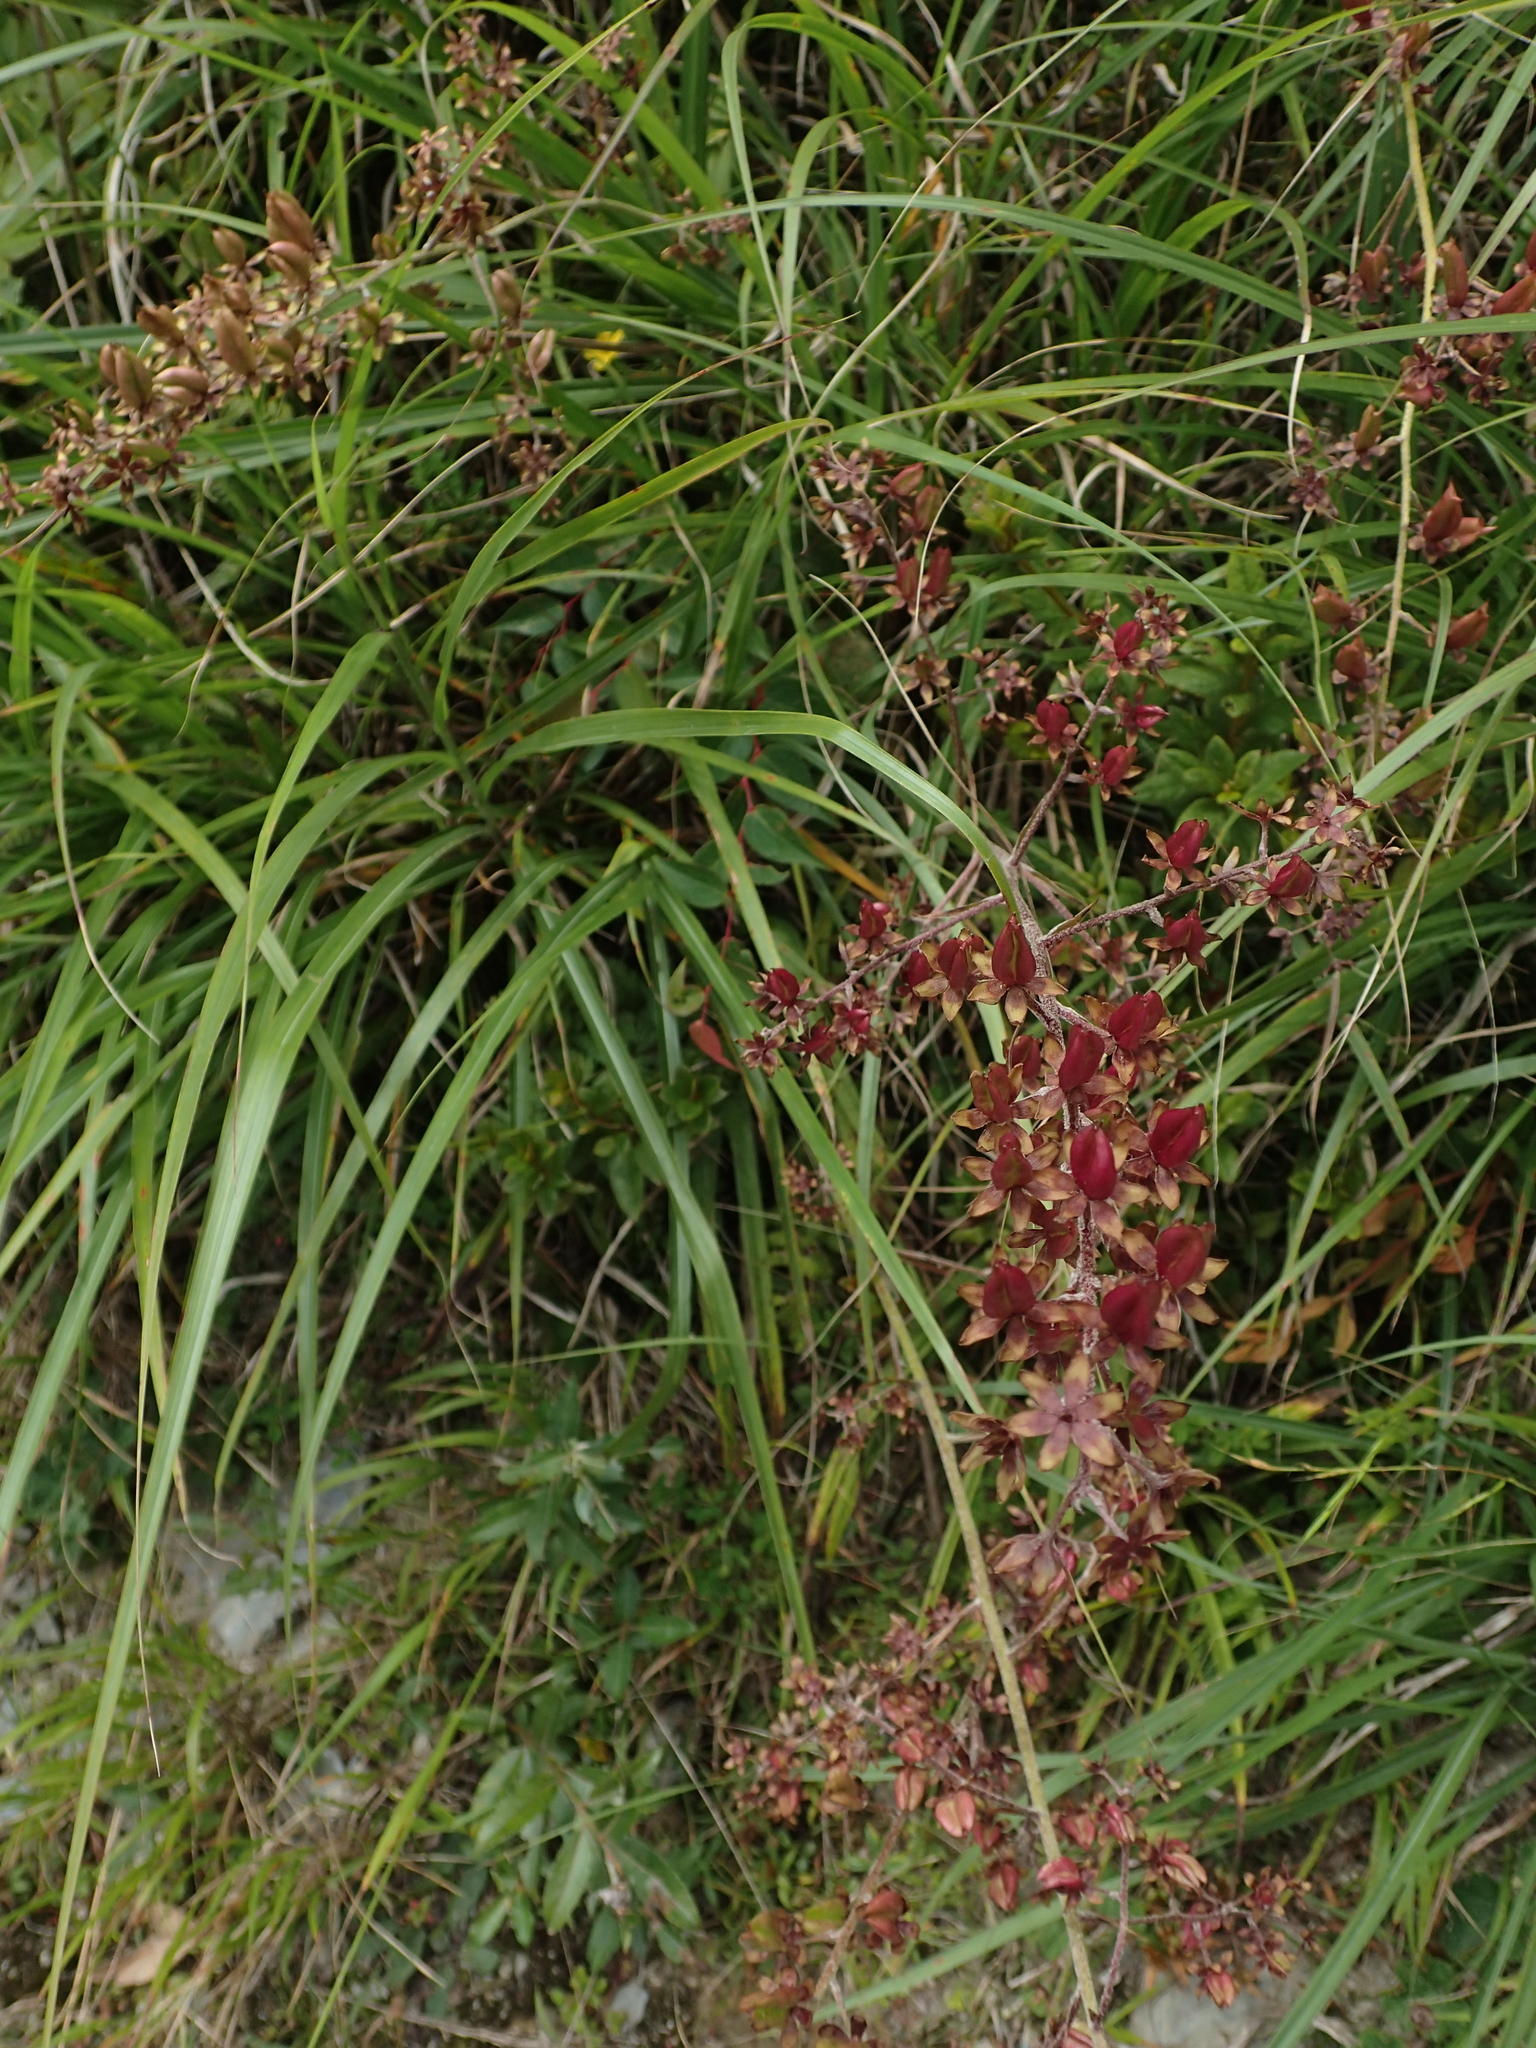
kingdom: Plantae
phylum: Tracheophyta
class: Liliopsida
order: Liliales
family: Melanthiaceae
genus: Veratrum
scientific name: Veratrum formosanum
